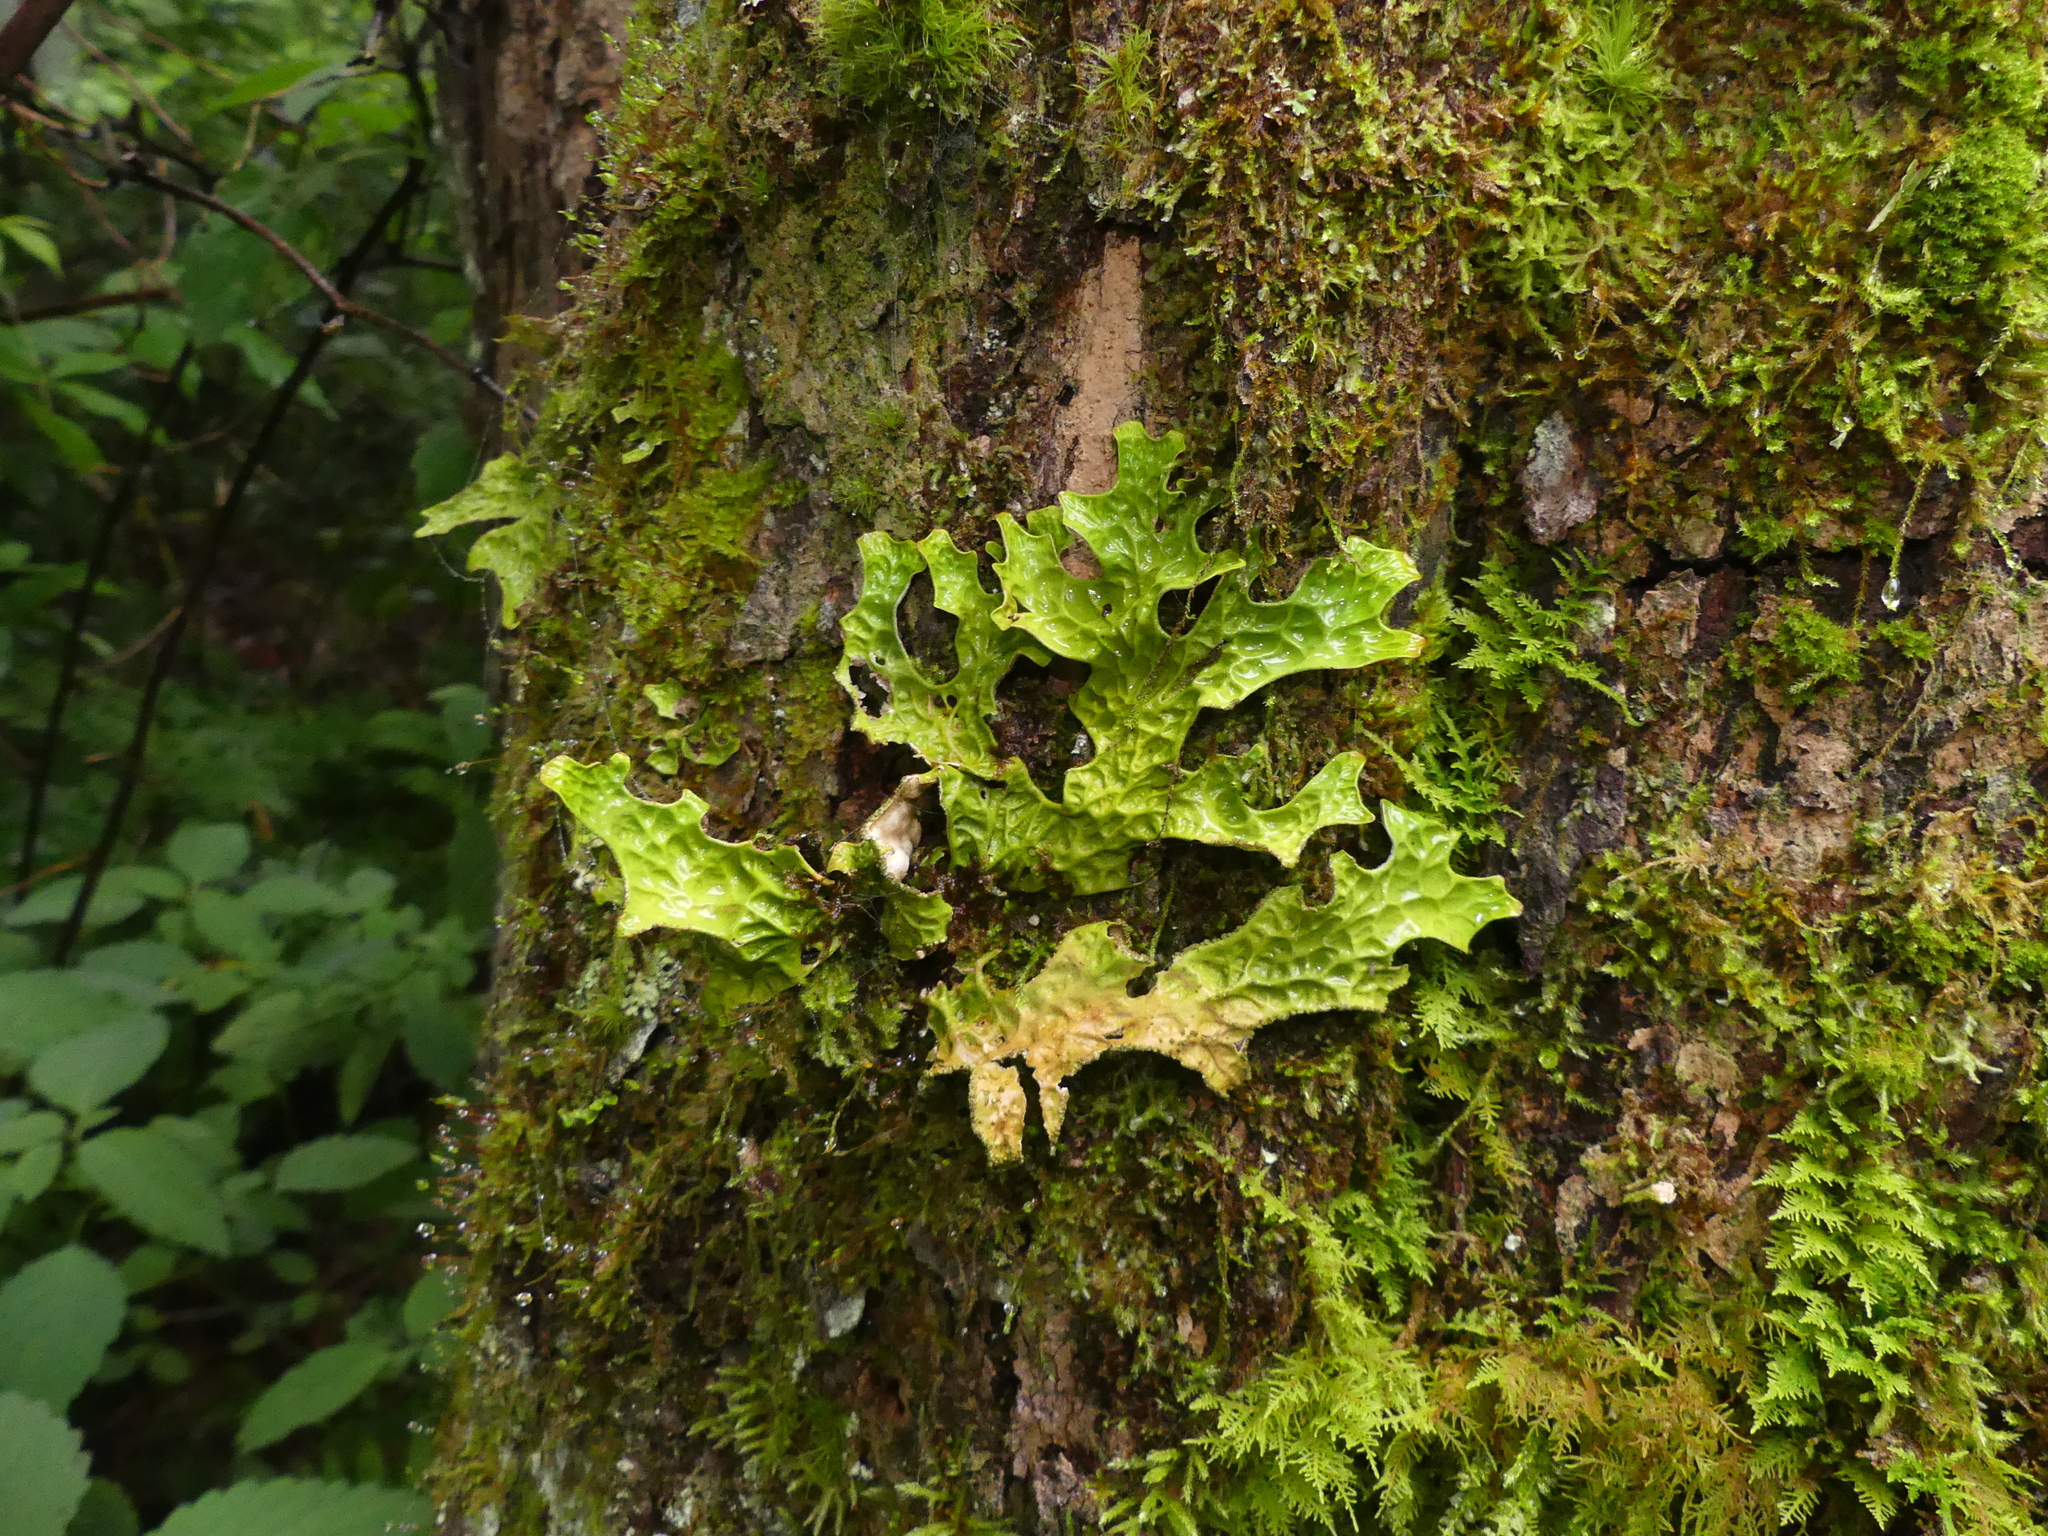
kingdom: Fungi
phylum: Ascomycota
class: Lecanoromycetes
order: Peltigerales
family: Lobariaceae
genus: Lobaria
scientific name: Lobaria pulmonaria
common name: Lungwort
